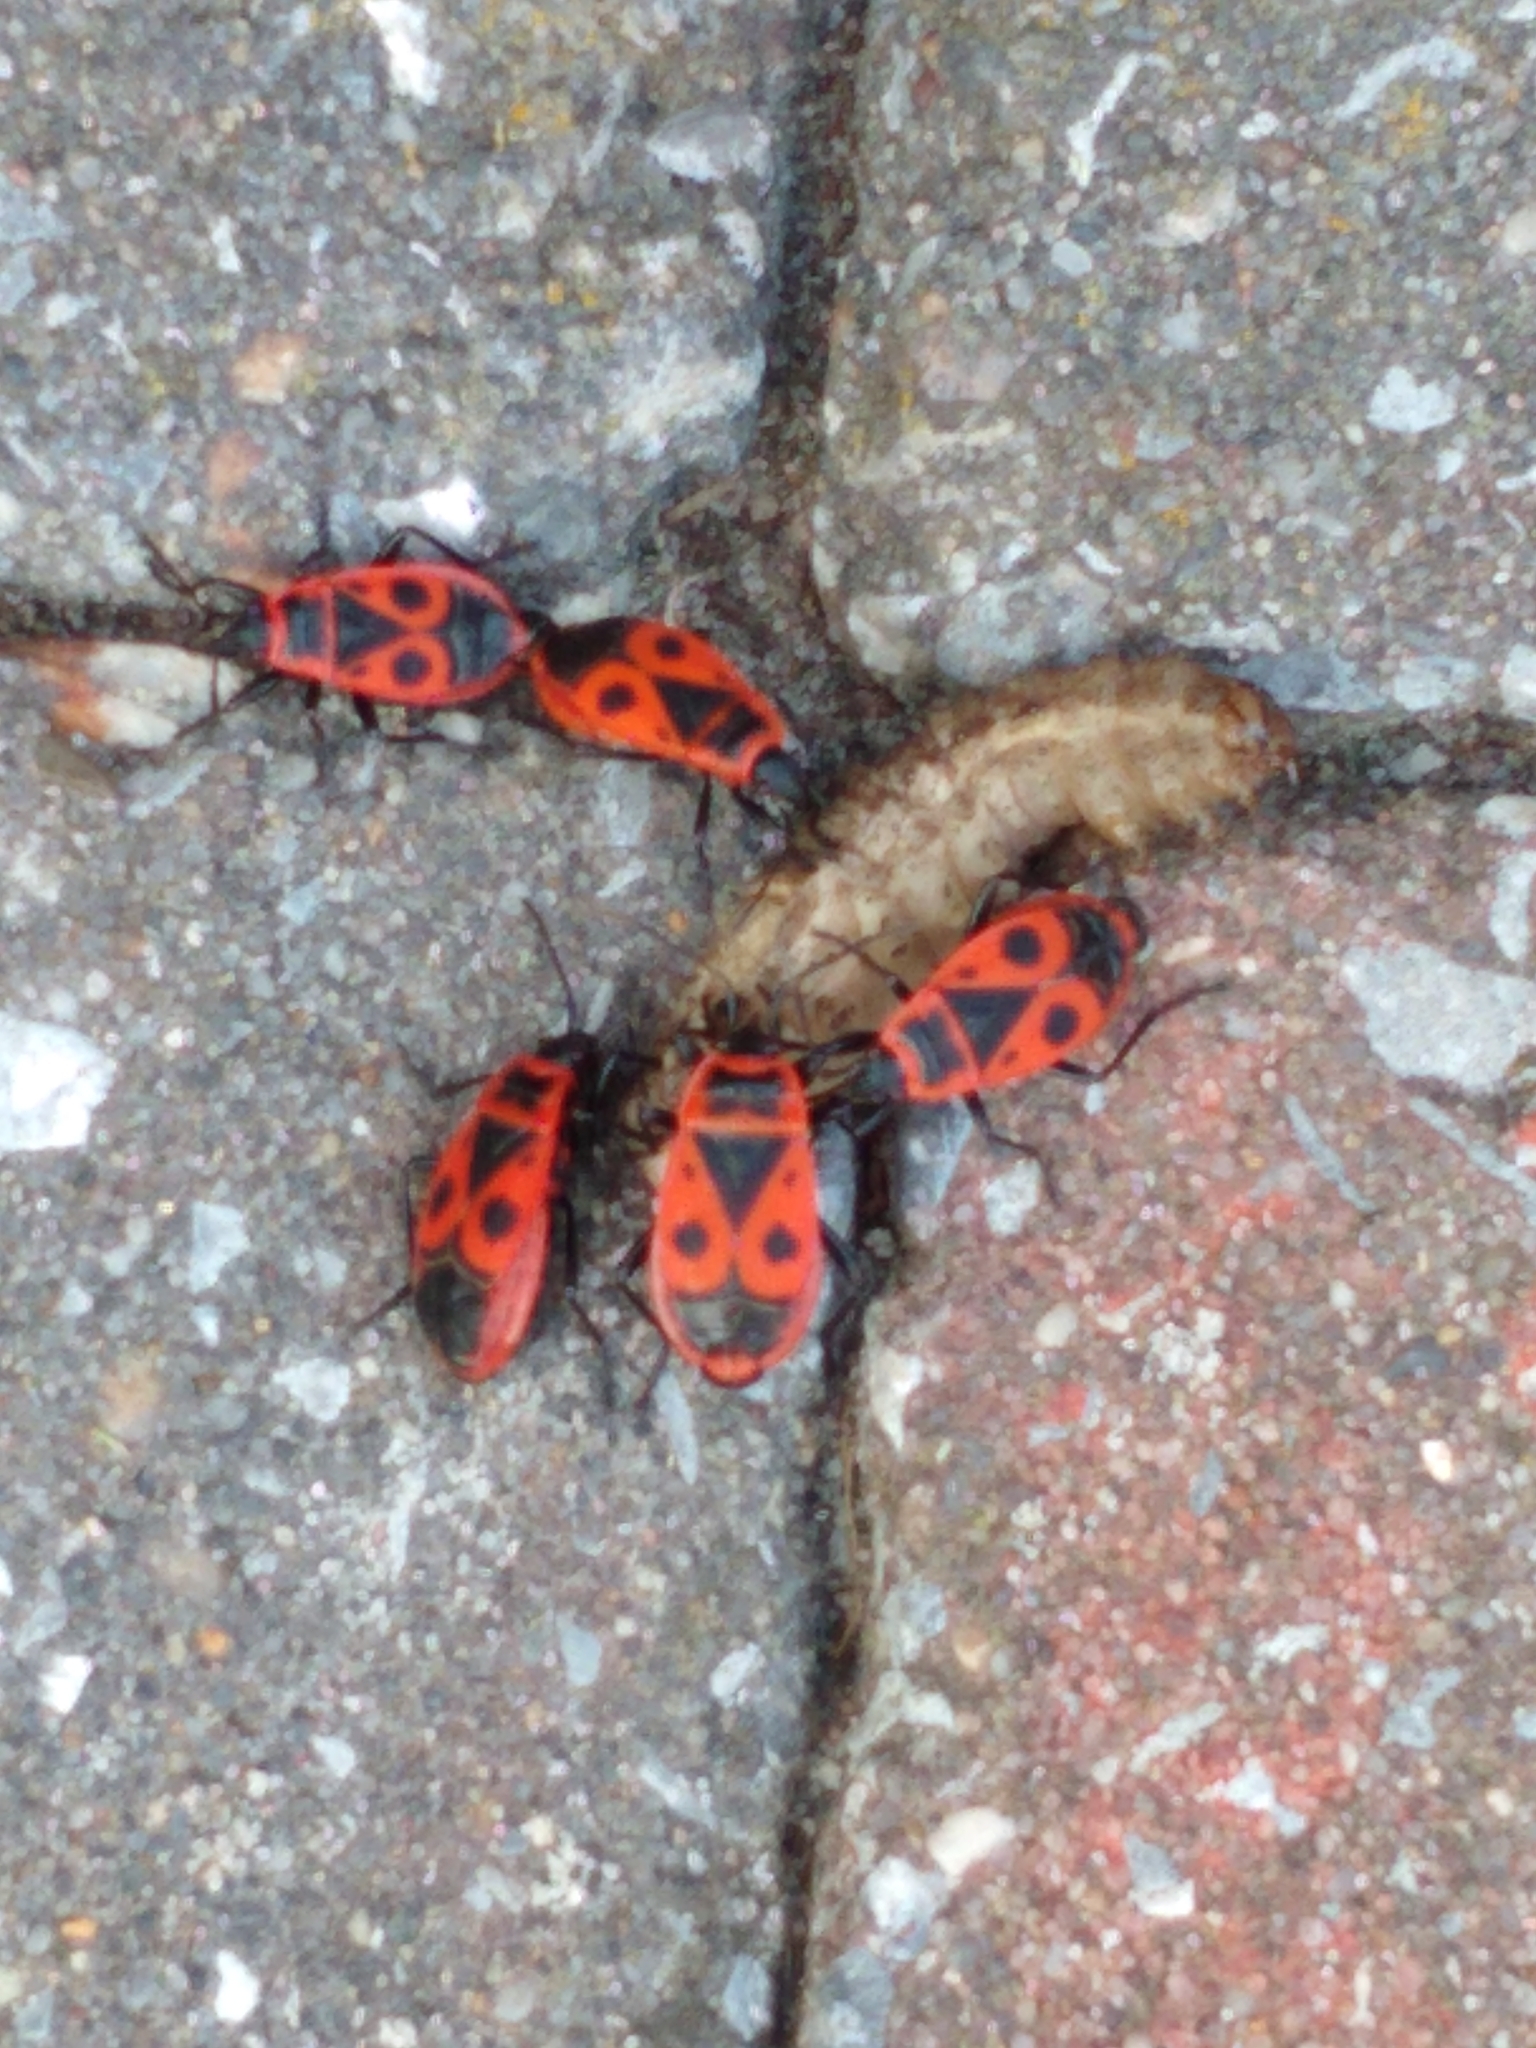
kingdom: Animalia
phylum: Arthropoda
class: Insecta
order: Hemiptera
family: Pyrrhocoridae
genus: Pyrrhocoris
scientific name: Pyrrhocoris apterus
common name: Firebug
